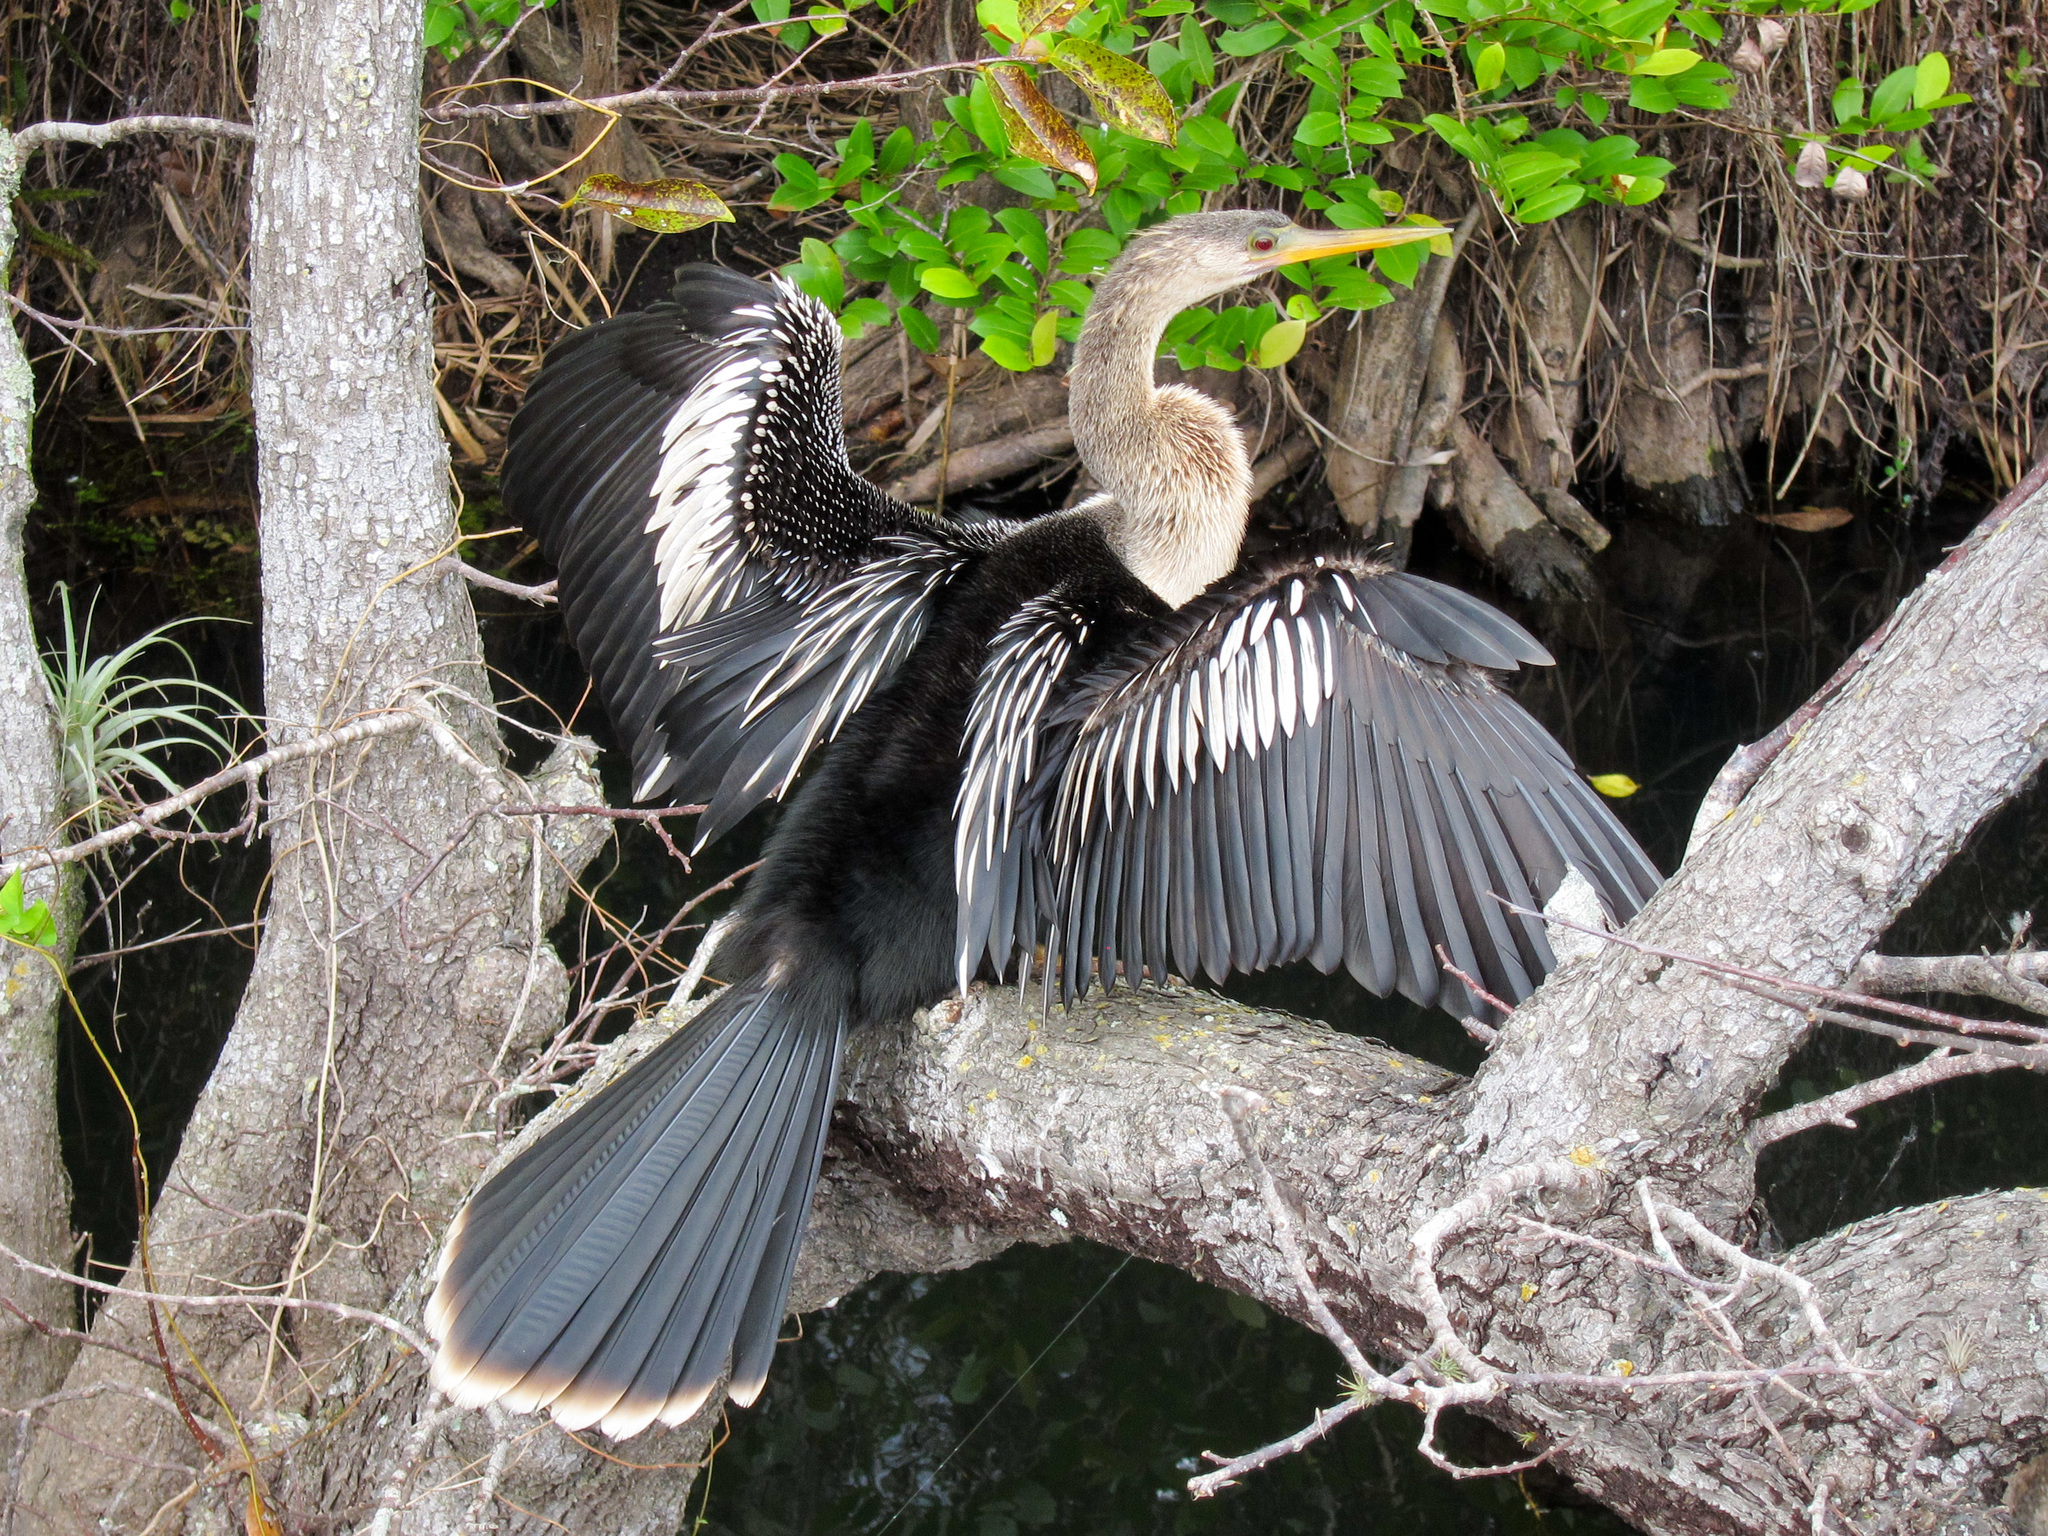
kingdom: Animalia
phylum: Chordata
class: Aves
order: Suliformes
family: Anhingidae
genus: Anhinga
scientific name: Anhinga anhinga
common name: Anhinga
